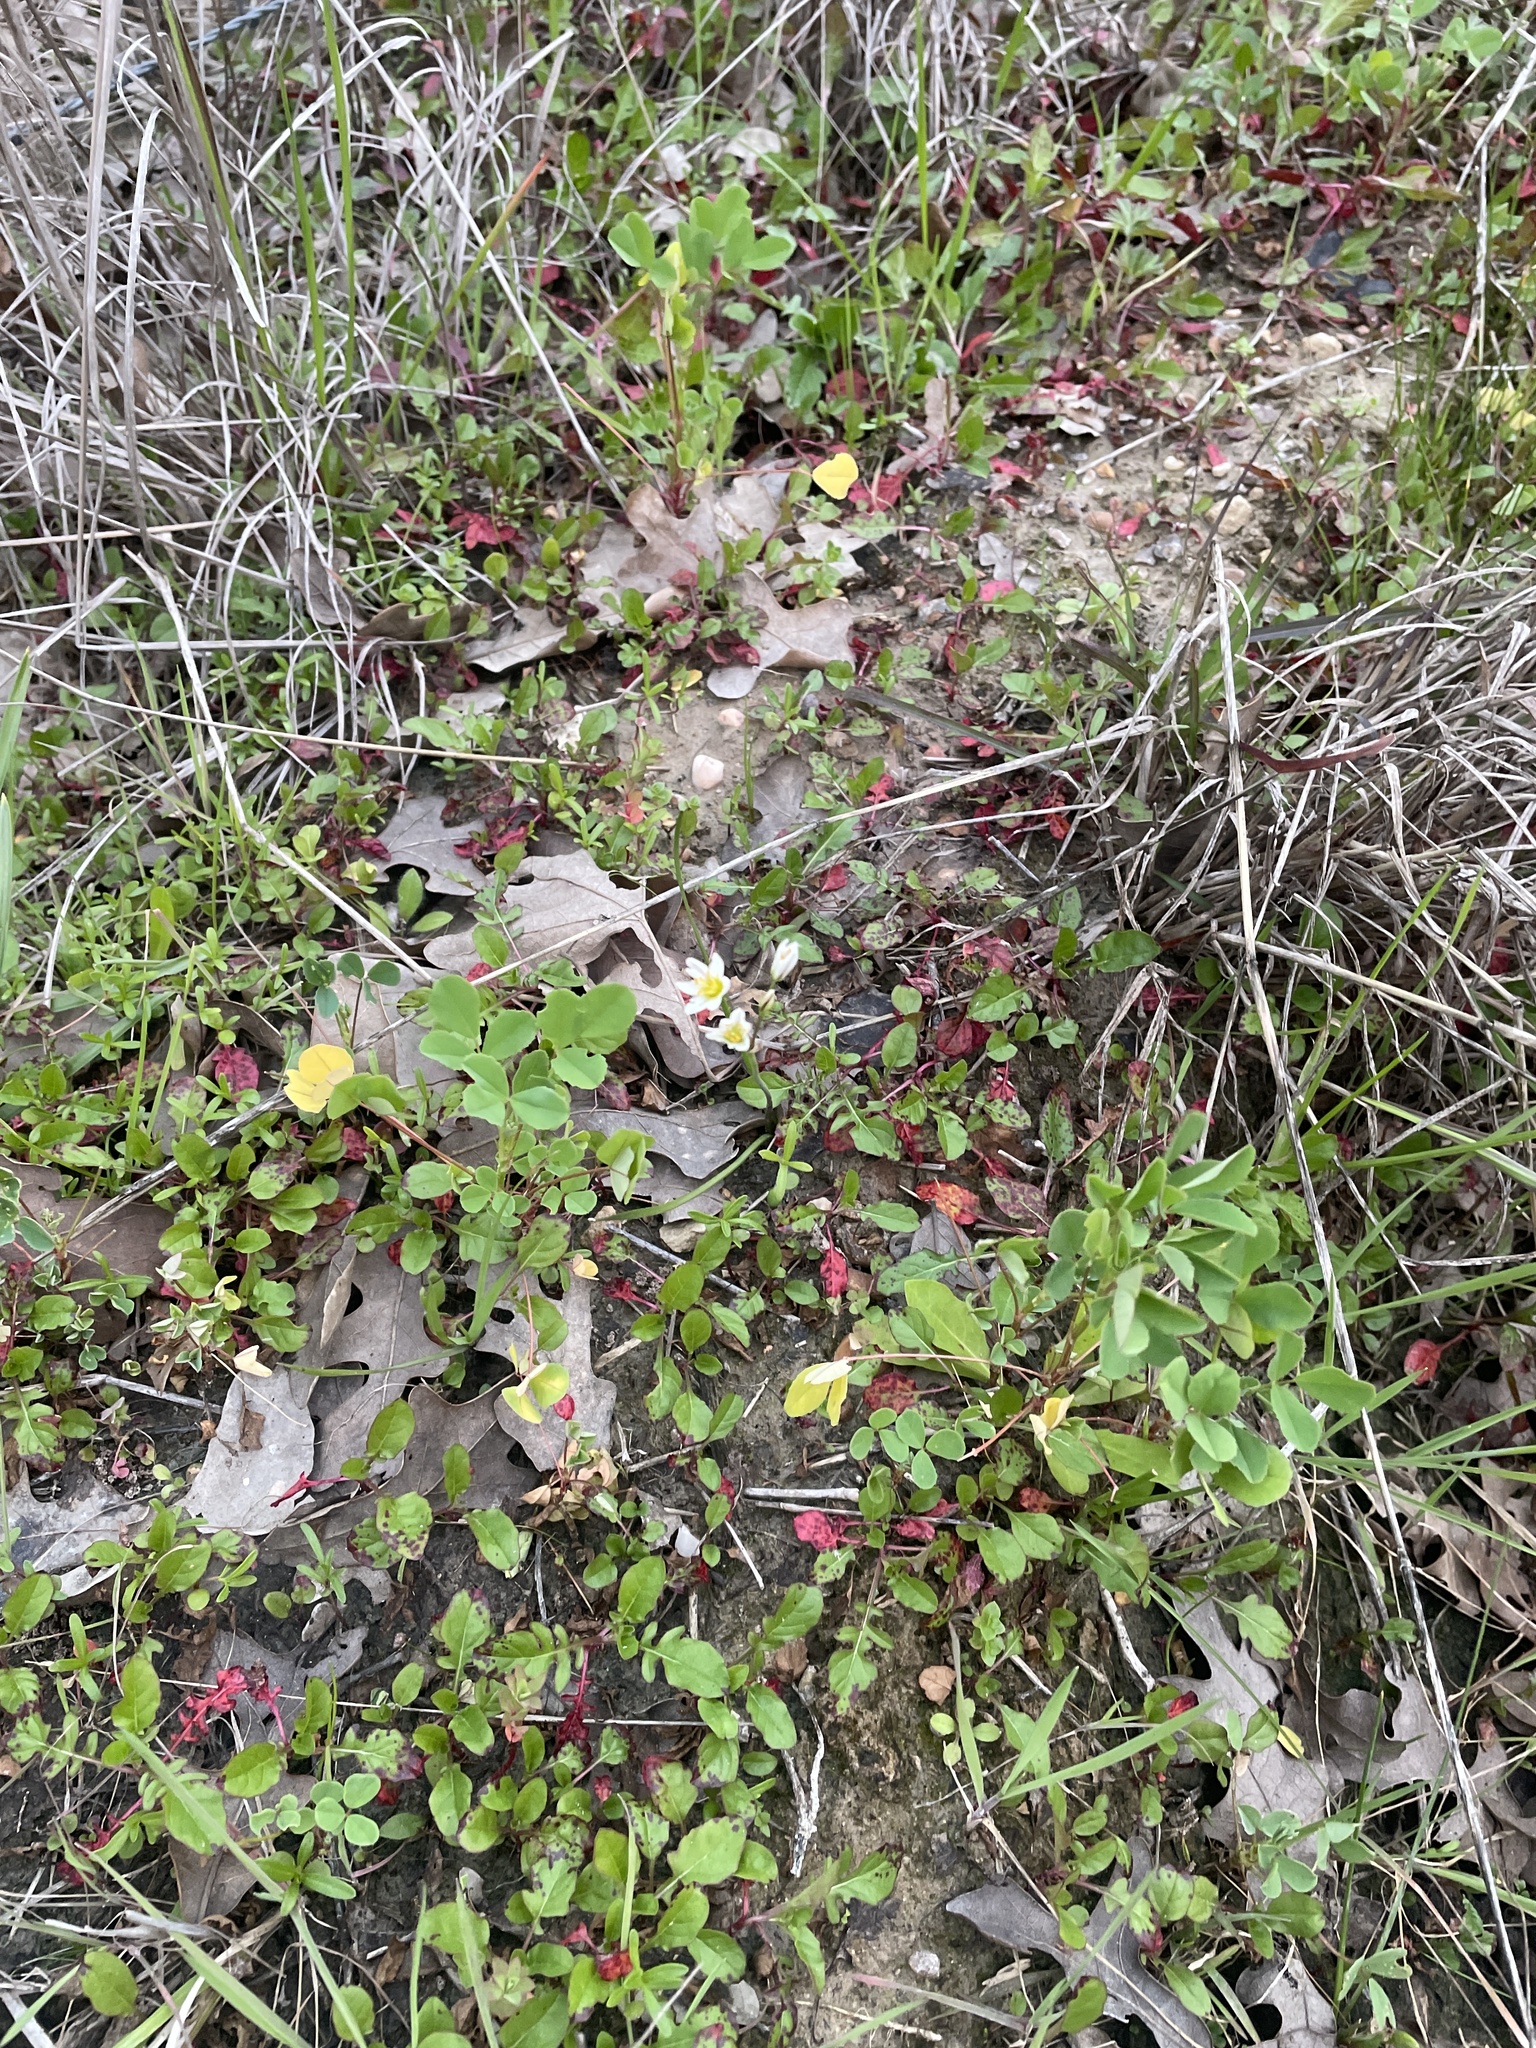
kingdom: Plantae
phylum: Tracheophyta
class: Liliopsida
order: Asparagales
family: Amaryllidaceae
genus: Nothoscordum
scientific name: Nothoscordum bivalve
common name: Crow-poison
